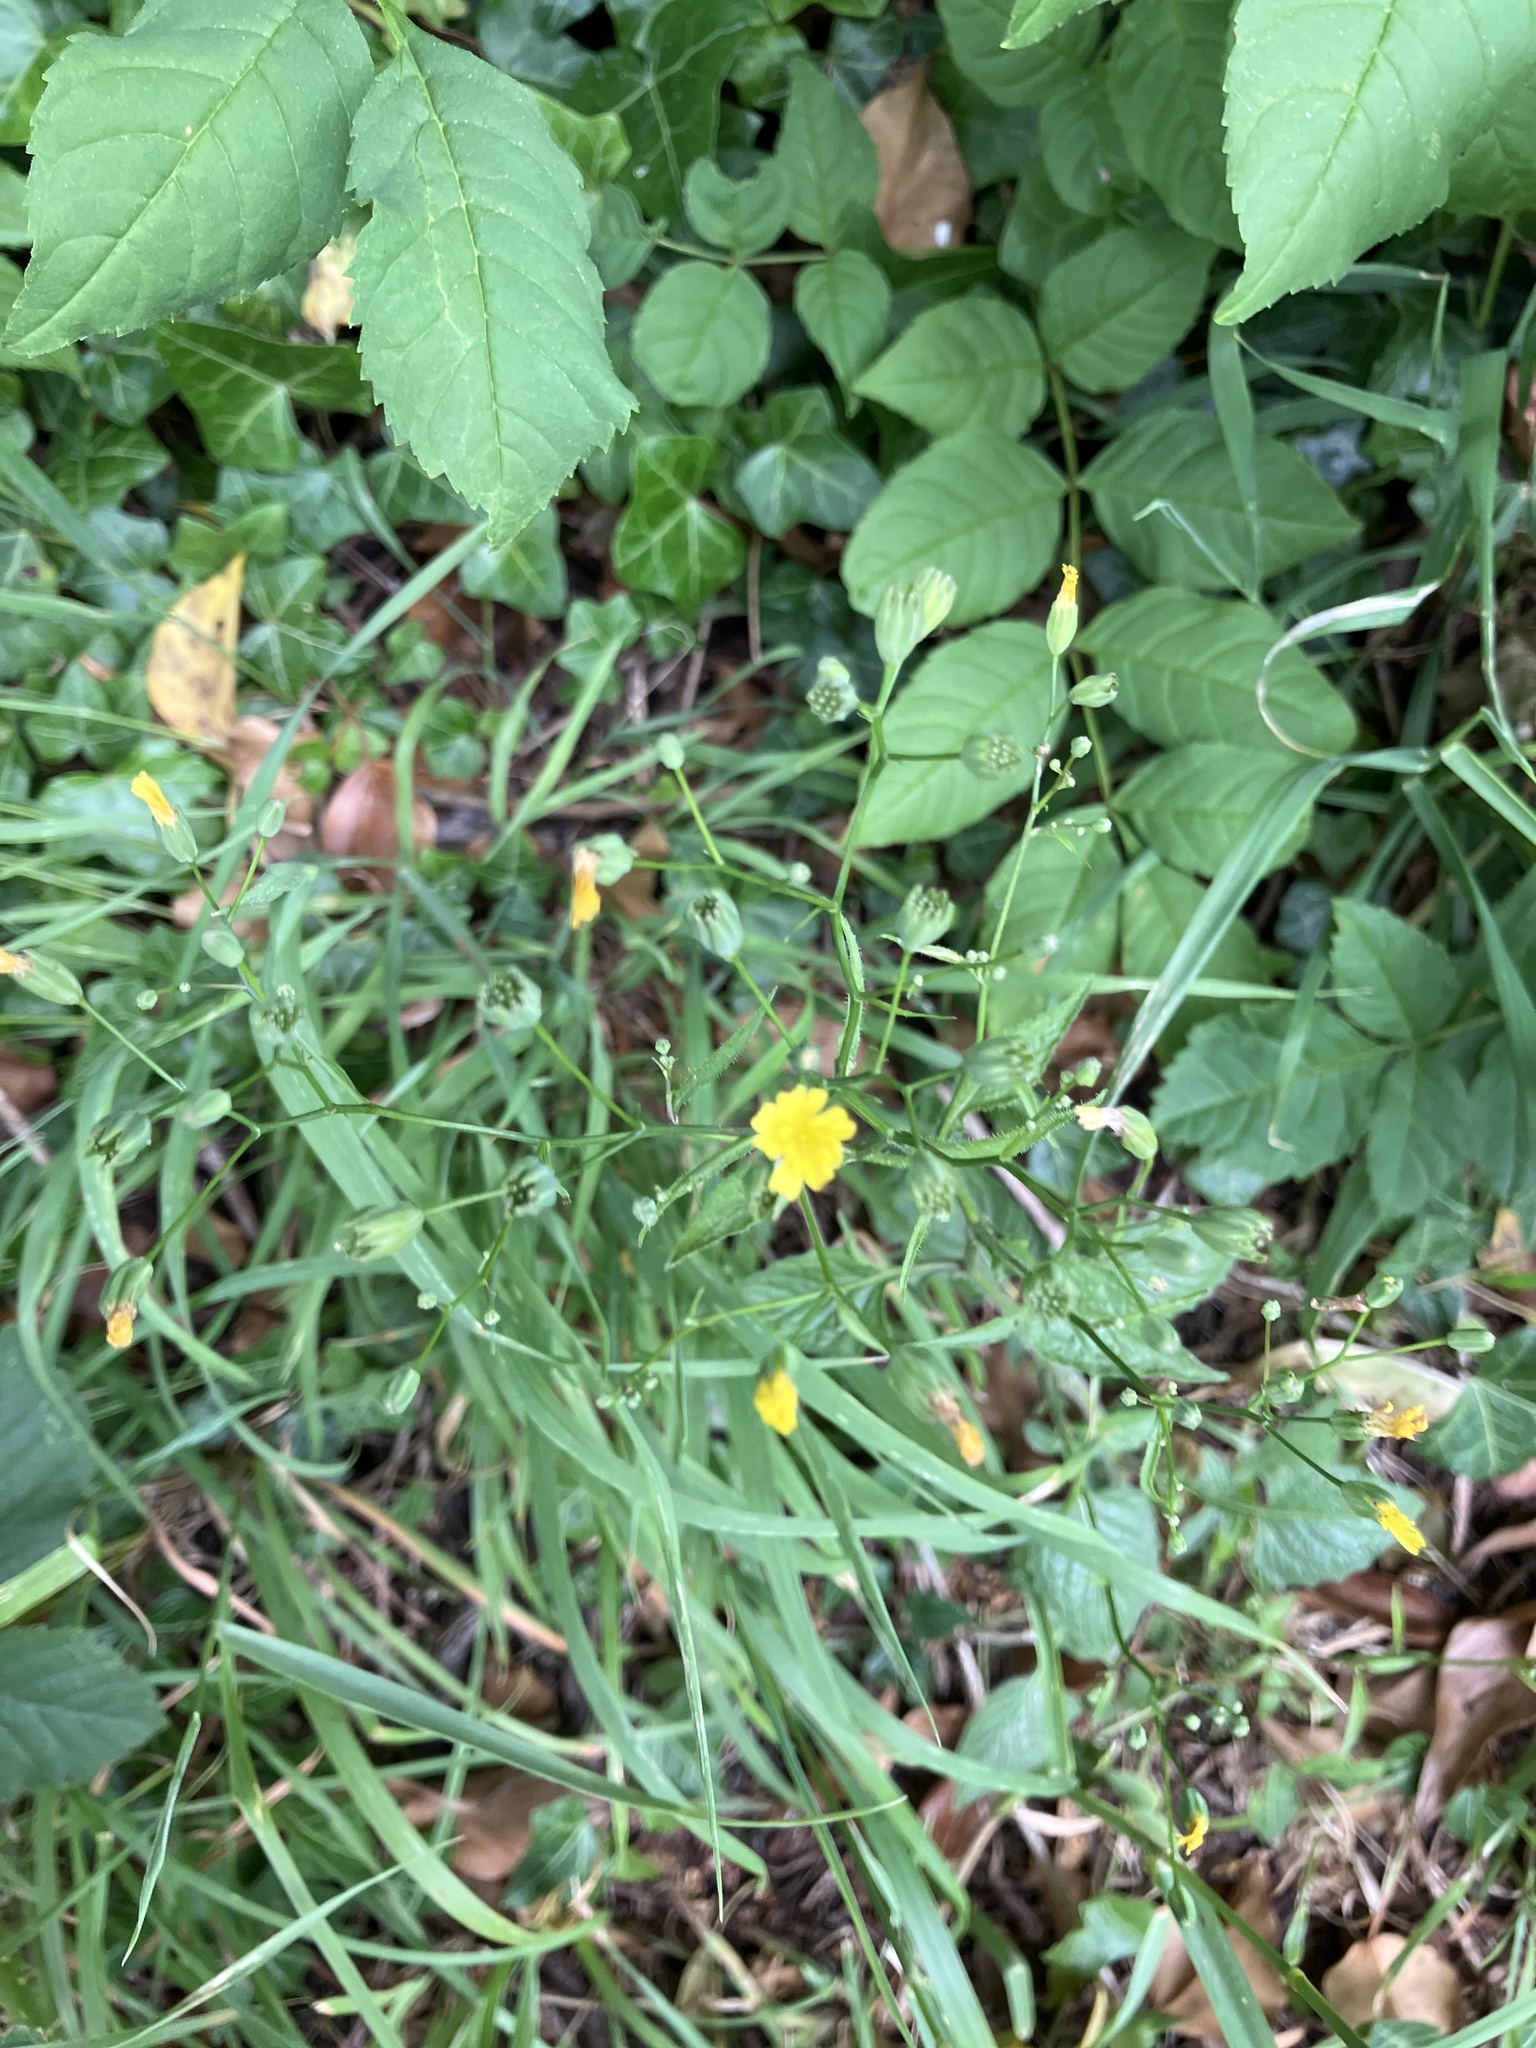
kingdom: Plantae
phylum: Tracheophyta
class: Magnoliopsida
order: Asterales
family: Asteraceae
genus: Lapsana
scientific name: Lapsana communis
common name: Nipplewort
